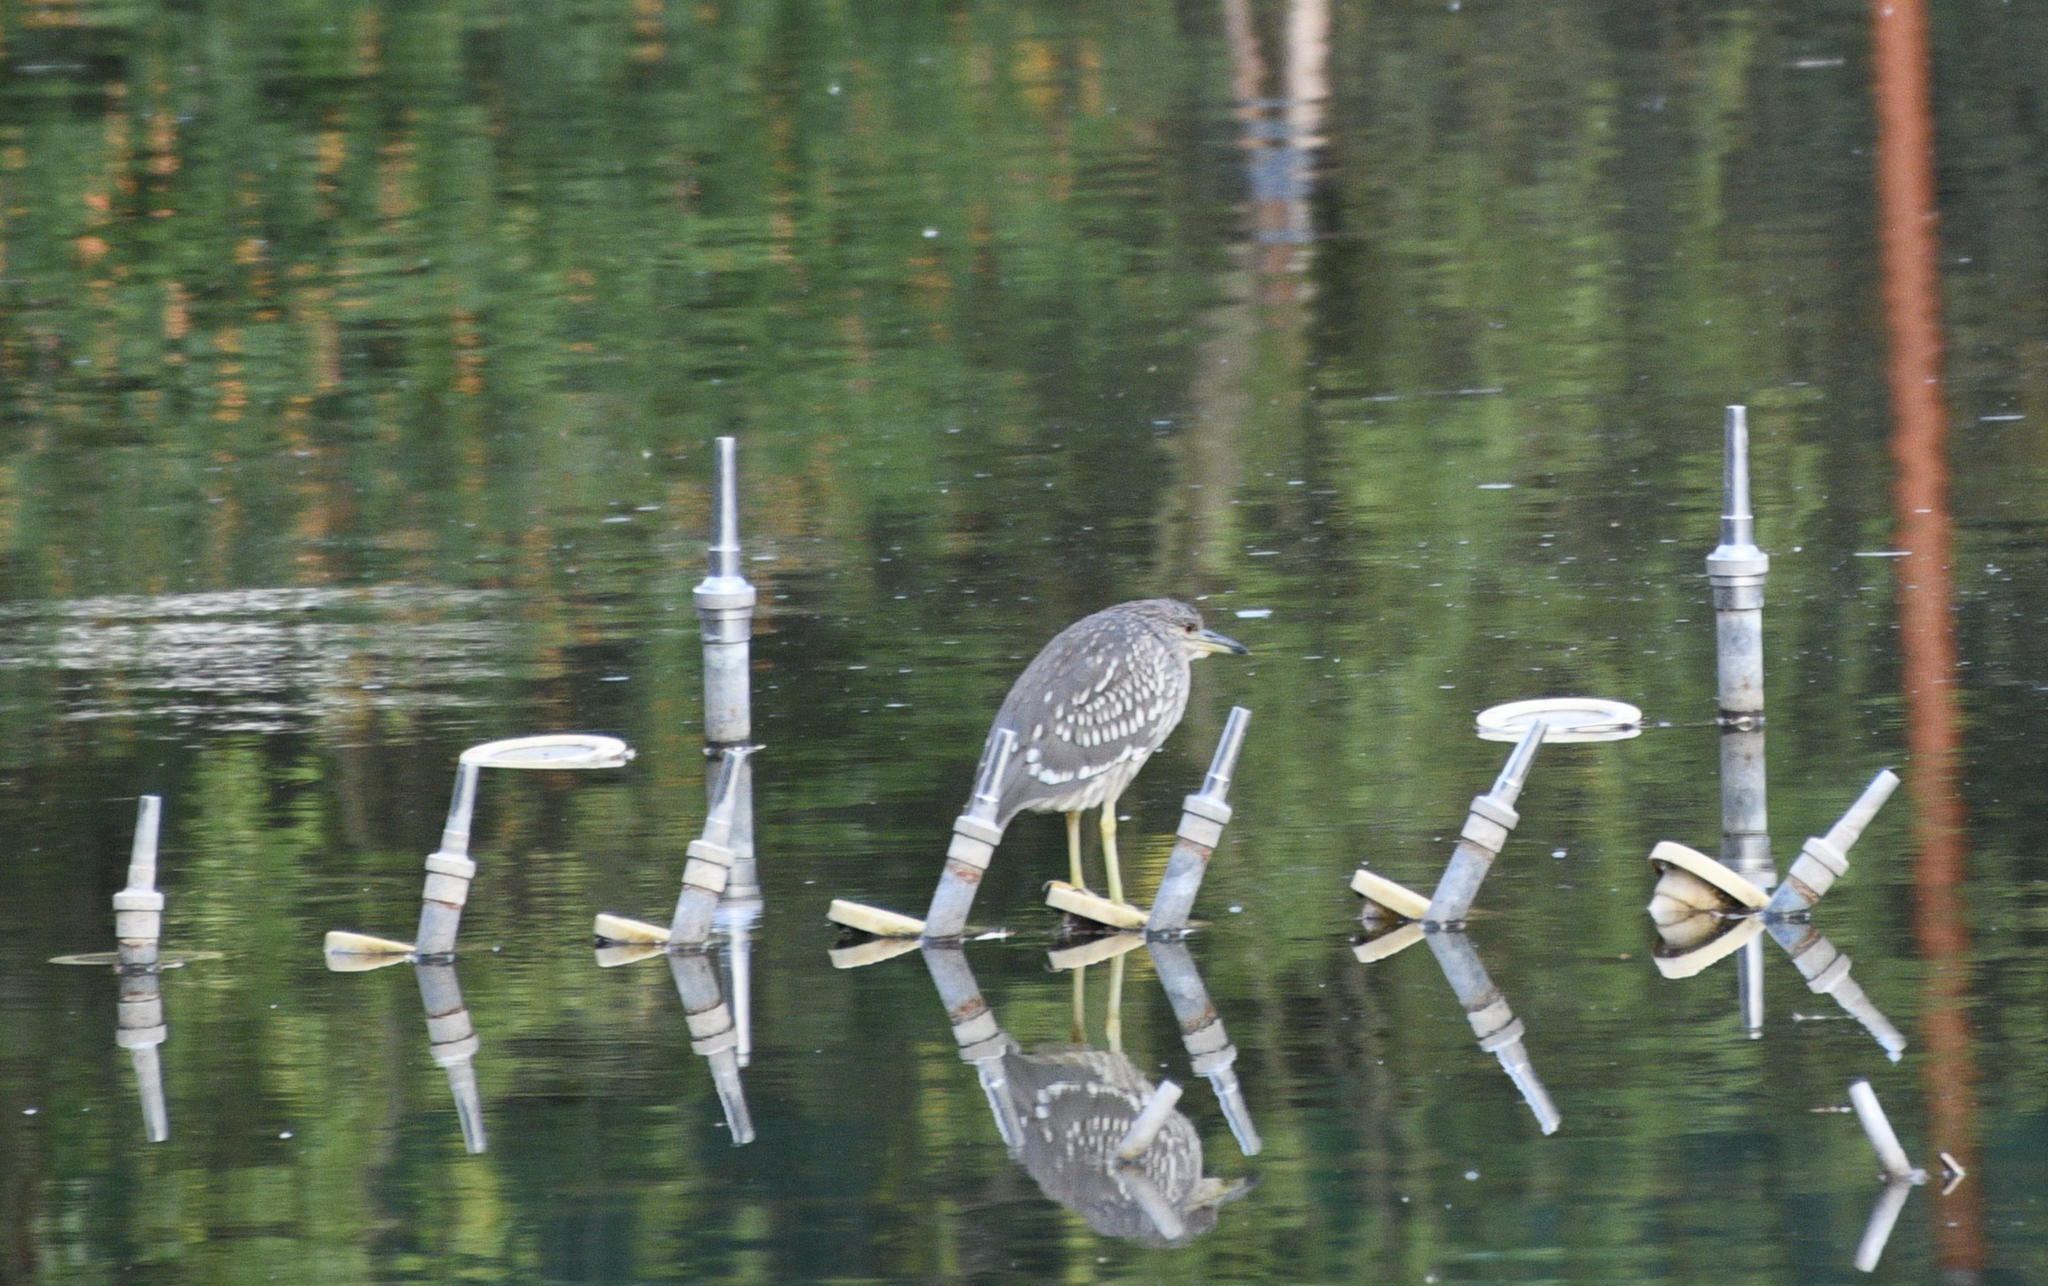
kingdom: Animalia
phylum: Chordata
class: Aves
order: Pelecaniformes
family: Ardeidae
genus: Nycticorax
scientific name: Nycticorax nycticorax
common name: Black-crowned night heron
